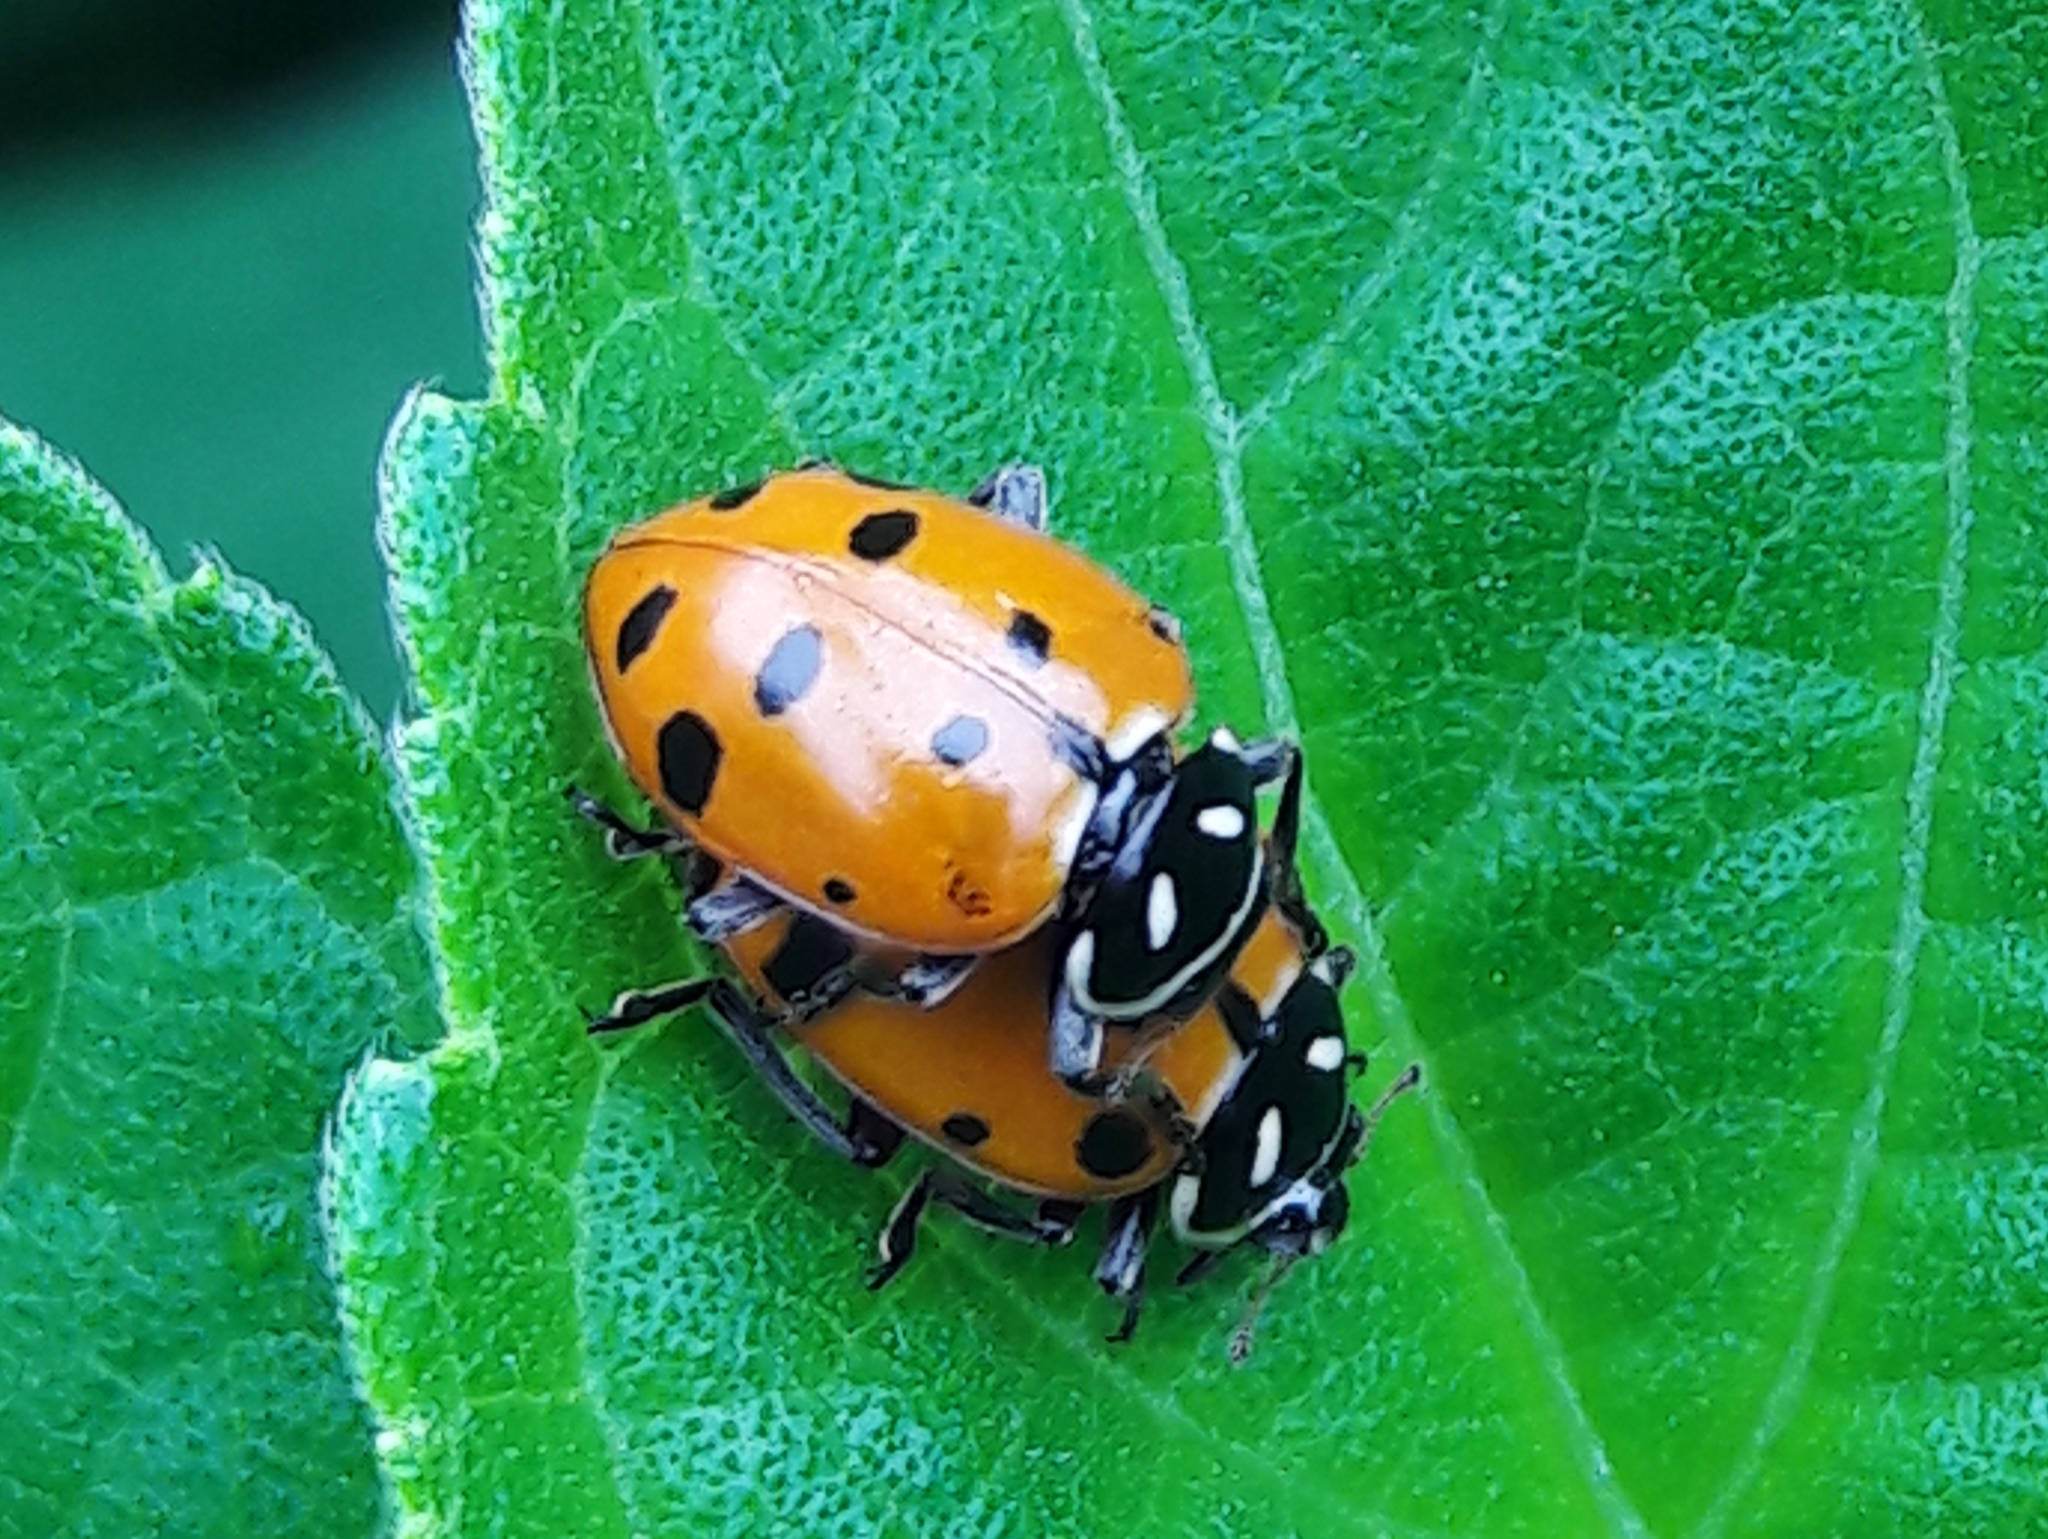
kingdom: Animalia
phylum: Arthropoda
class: Insecta
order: Coleoptera
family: Coccinellidae
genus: Hippodamia
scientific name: Hippodamia convergens
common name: Convergent lady beetle
